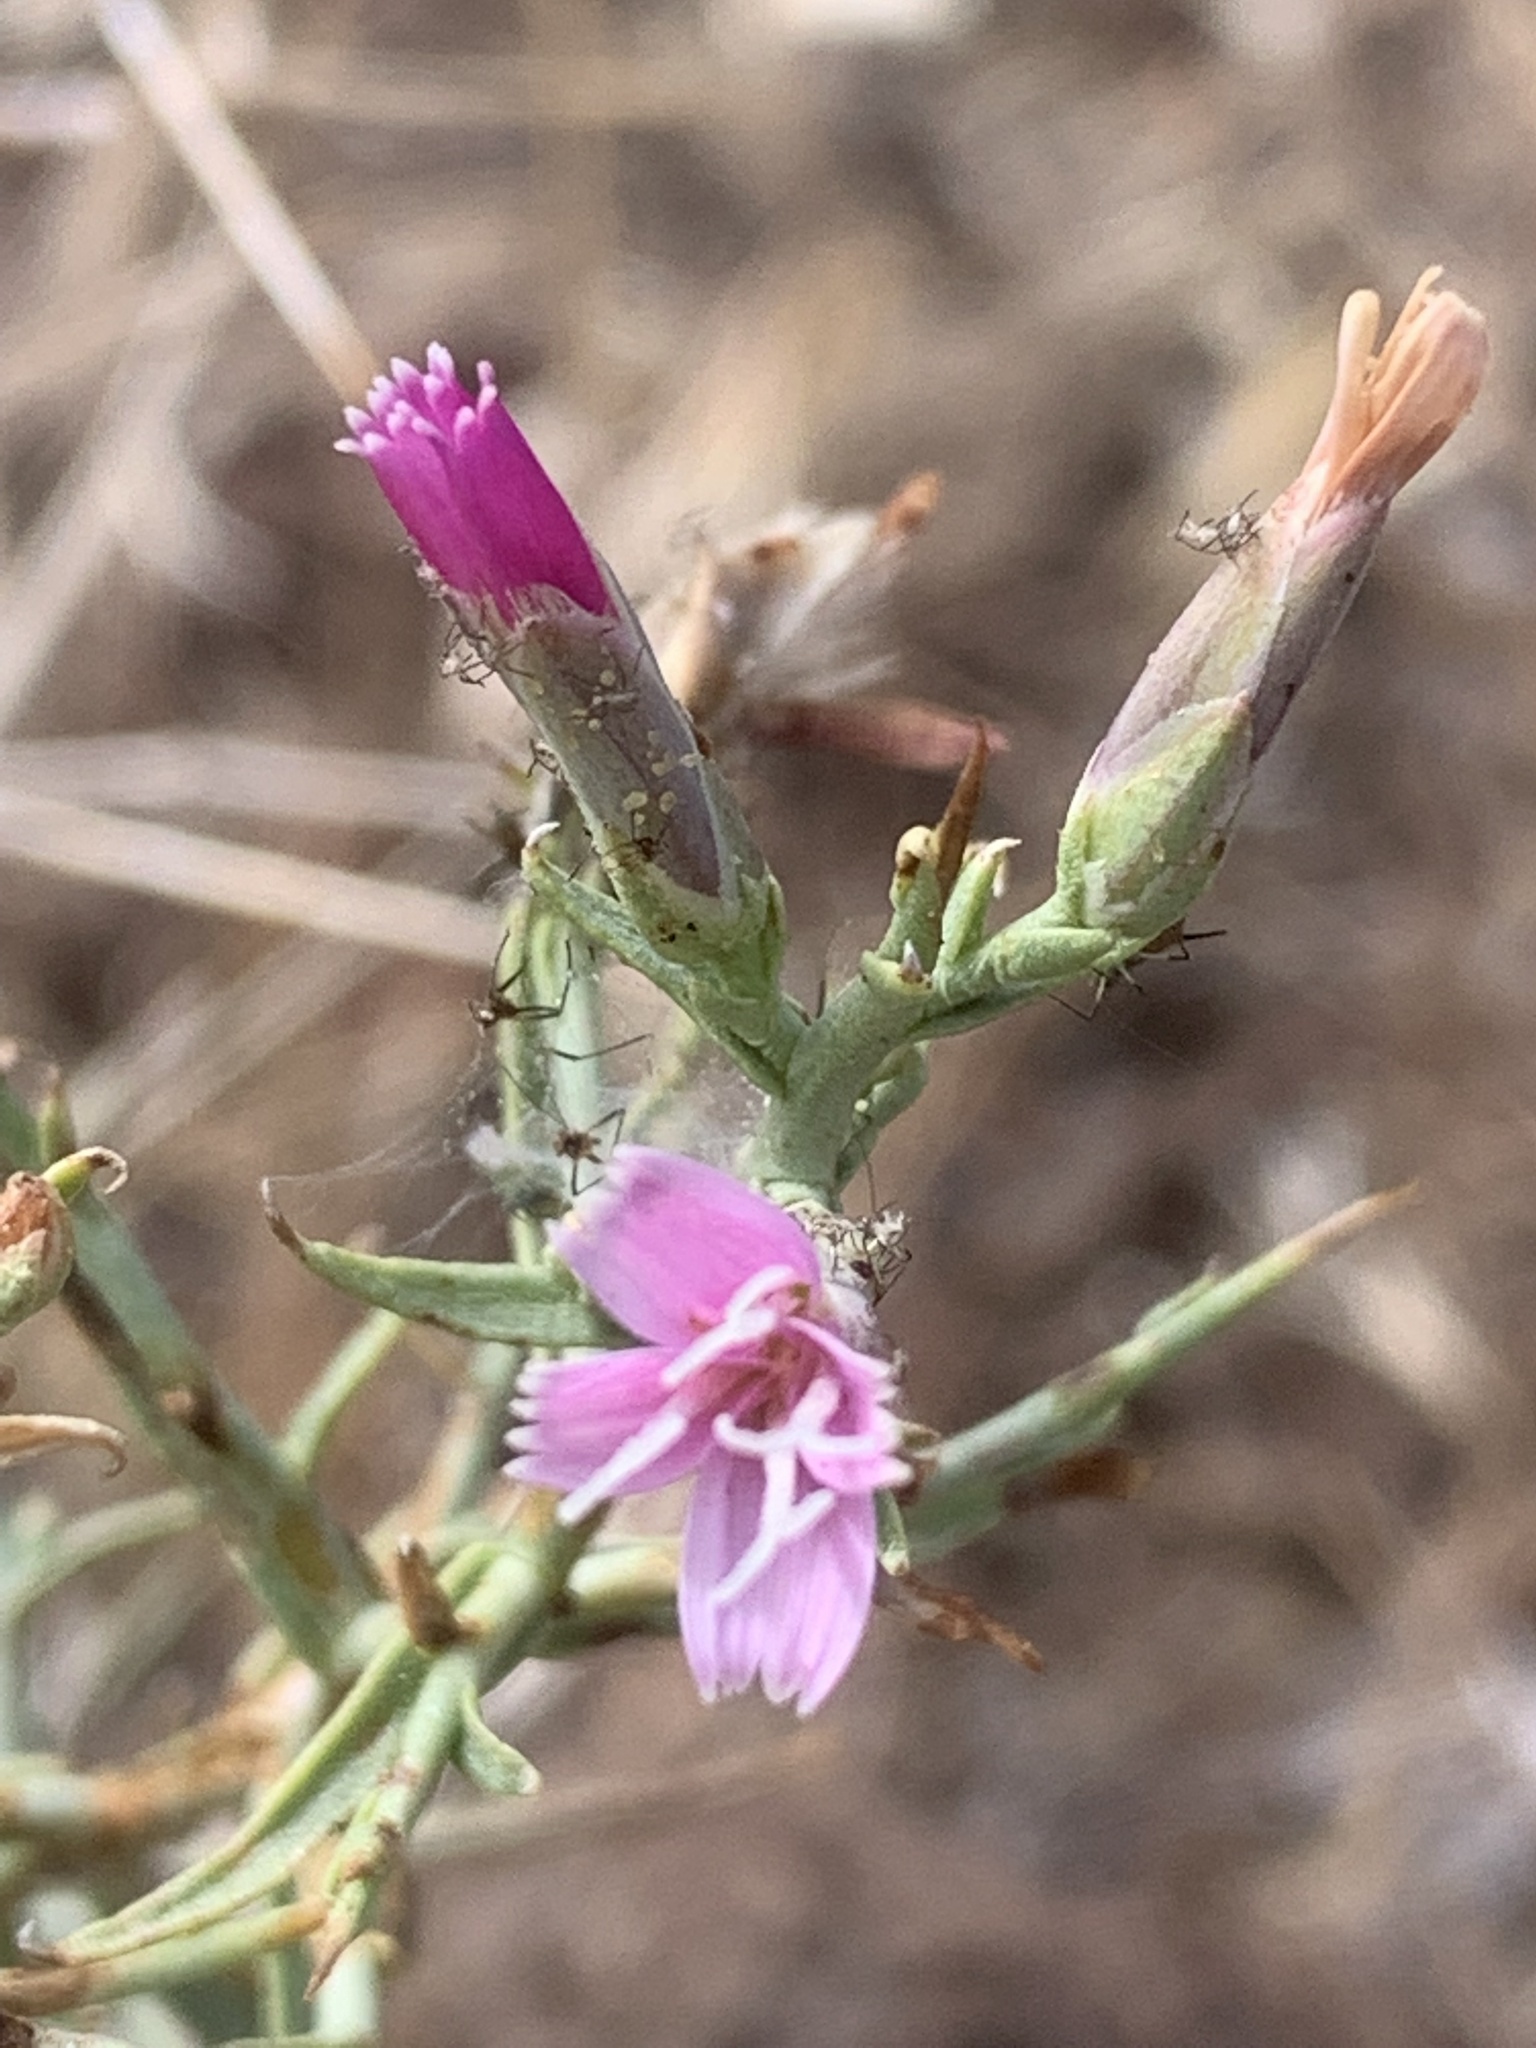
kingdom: Plantae
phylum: Tracheophyta
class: Magnoliopsida
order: Asterales
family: Asteraceae
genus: Pleiacanthus
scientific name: Pleiacanthus spinosus
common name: Thorny skeleton-weed
